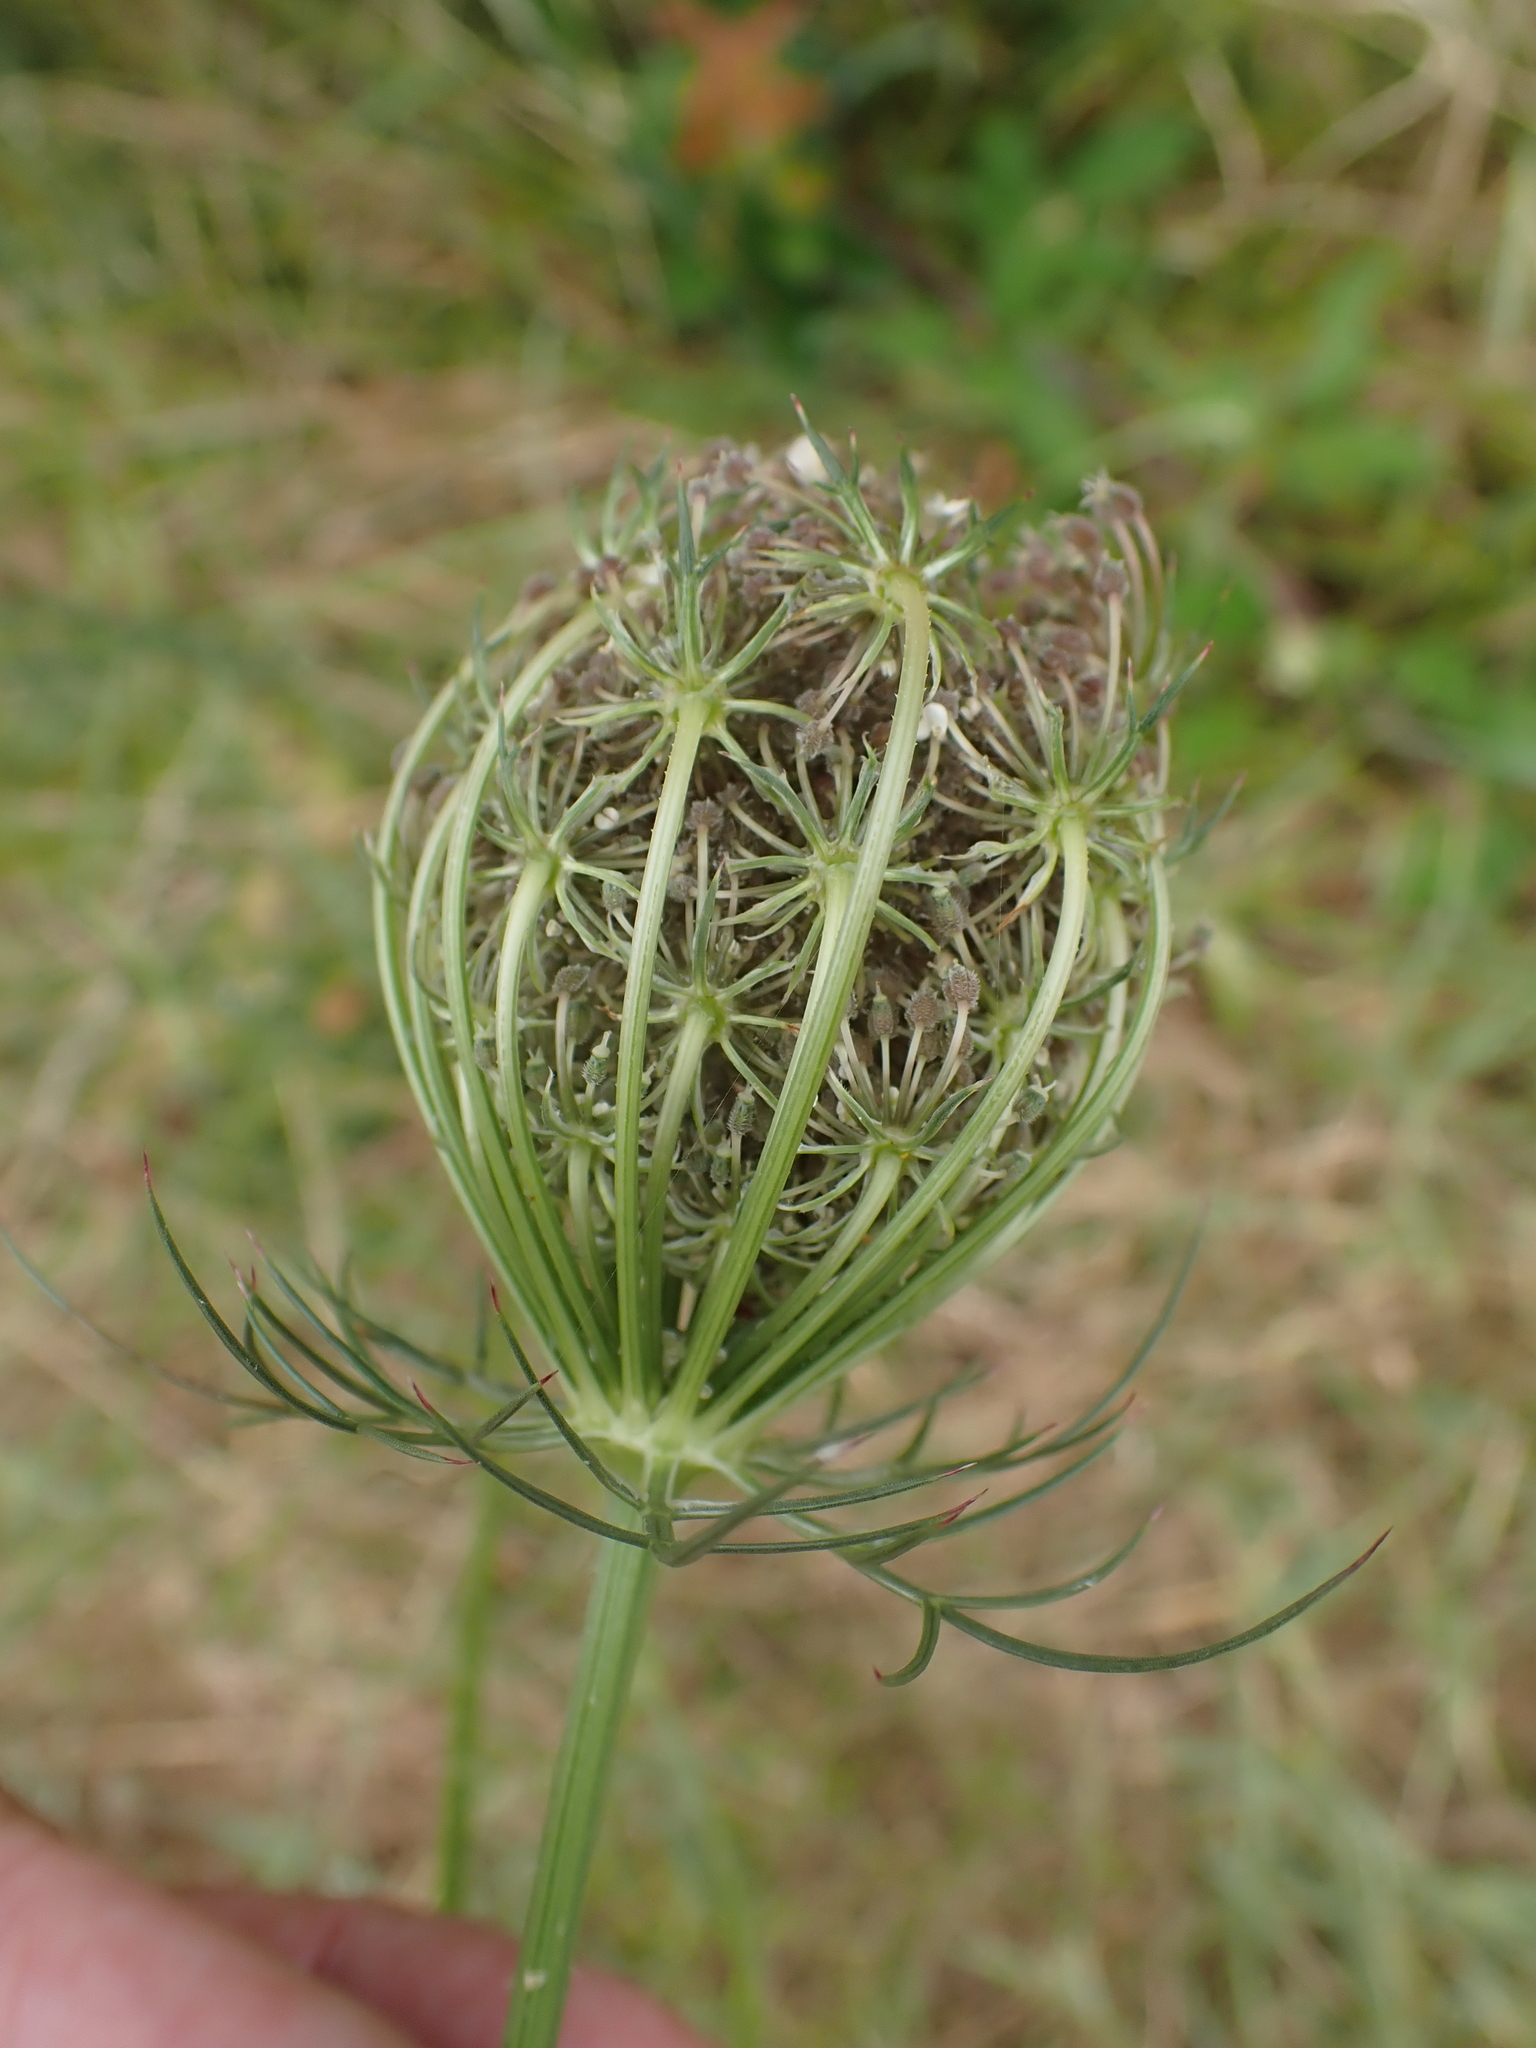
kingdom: Plantae
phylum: Tracheophyta
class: Magnoliopsida
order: Apiales
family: Apiaceae
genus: Daucus
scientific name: Daucus carota
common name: Wild carrot
